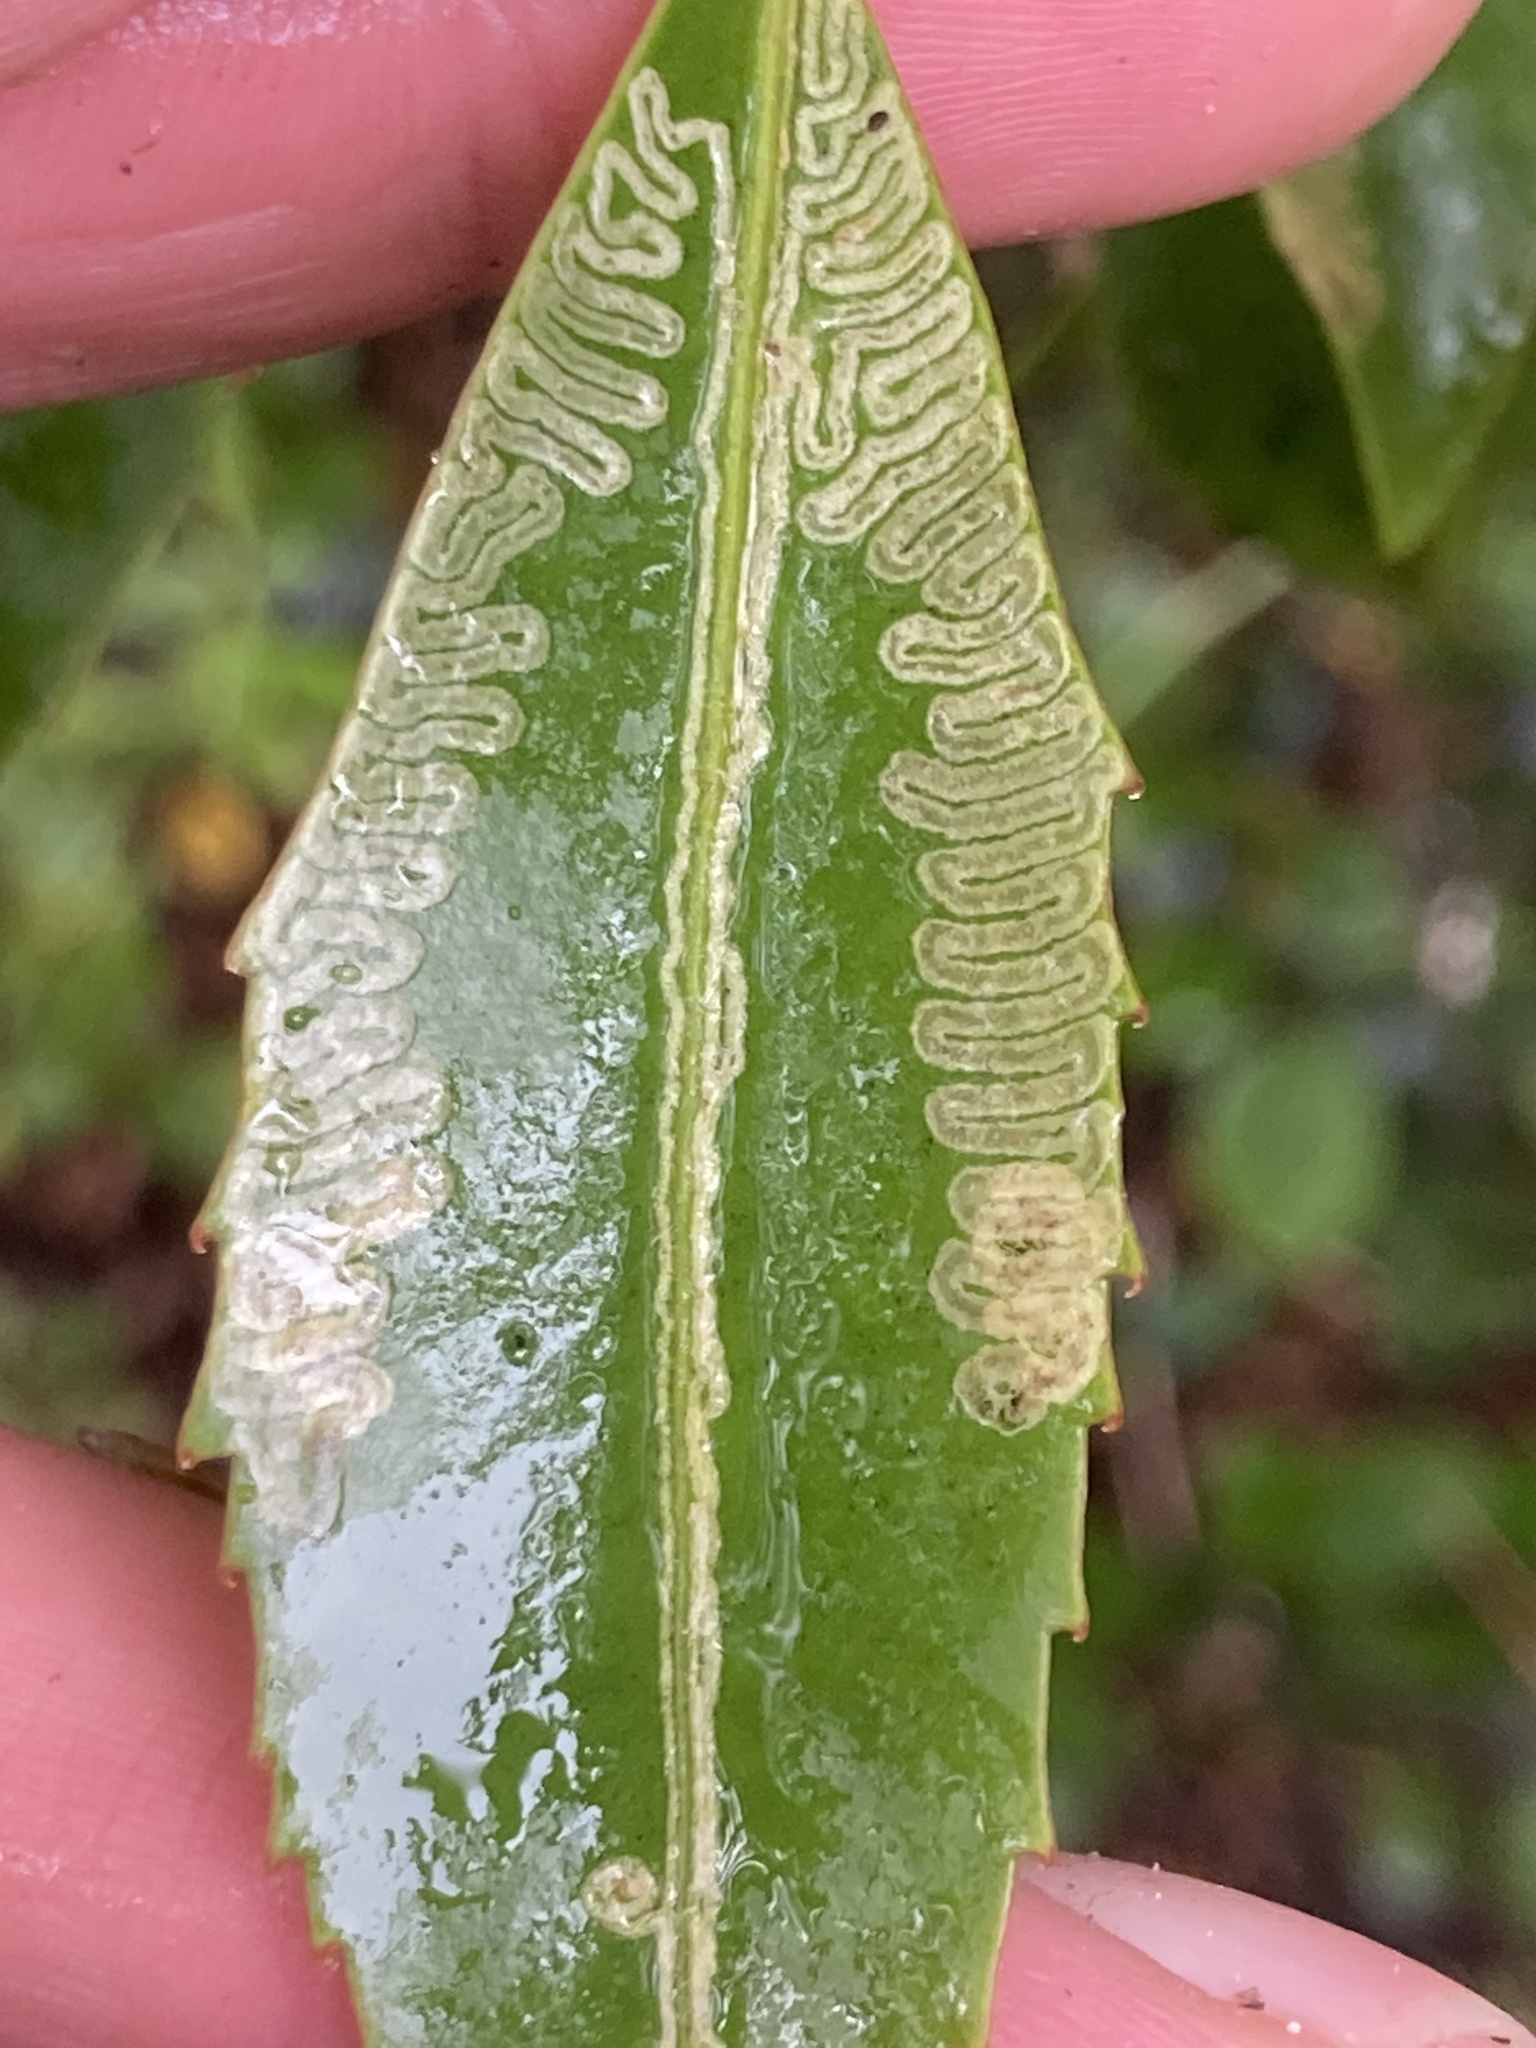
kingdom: Animalia
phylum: Arthropoda
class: Insecta
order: Lepidoptera
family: Gracillariidae
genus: Eumetriochroa
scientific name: Eumetriochroa panacivermiforma
